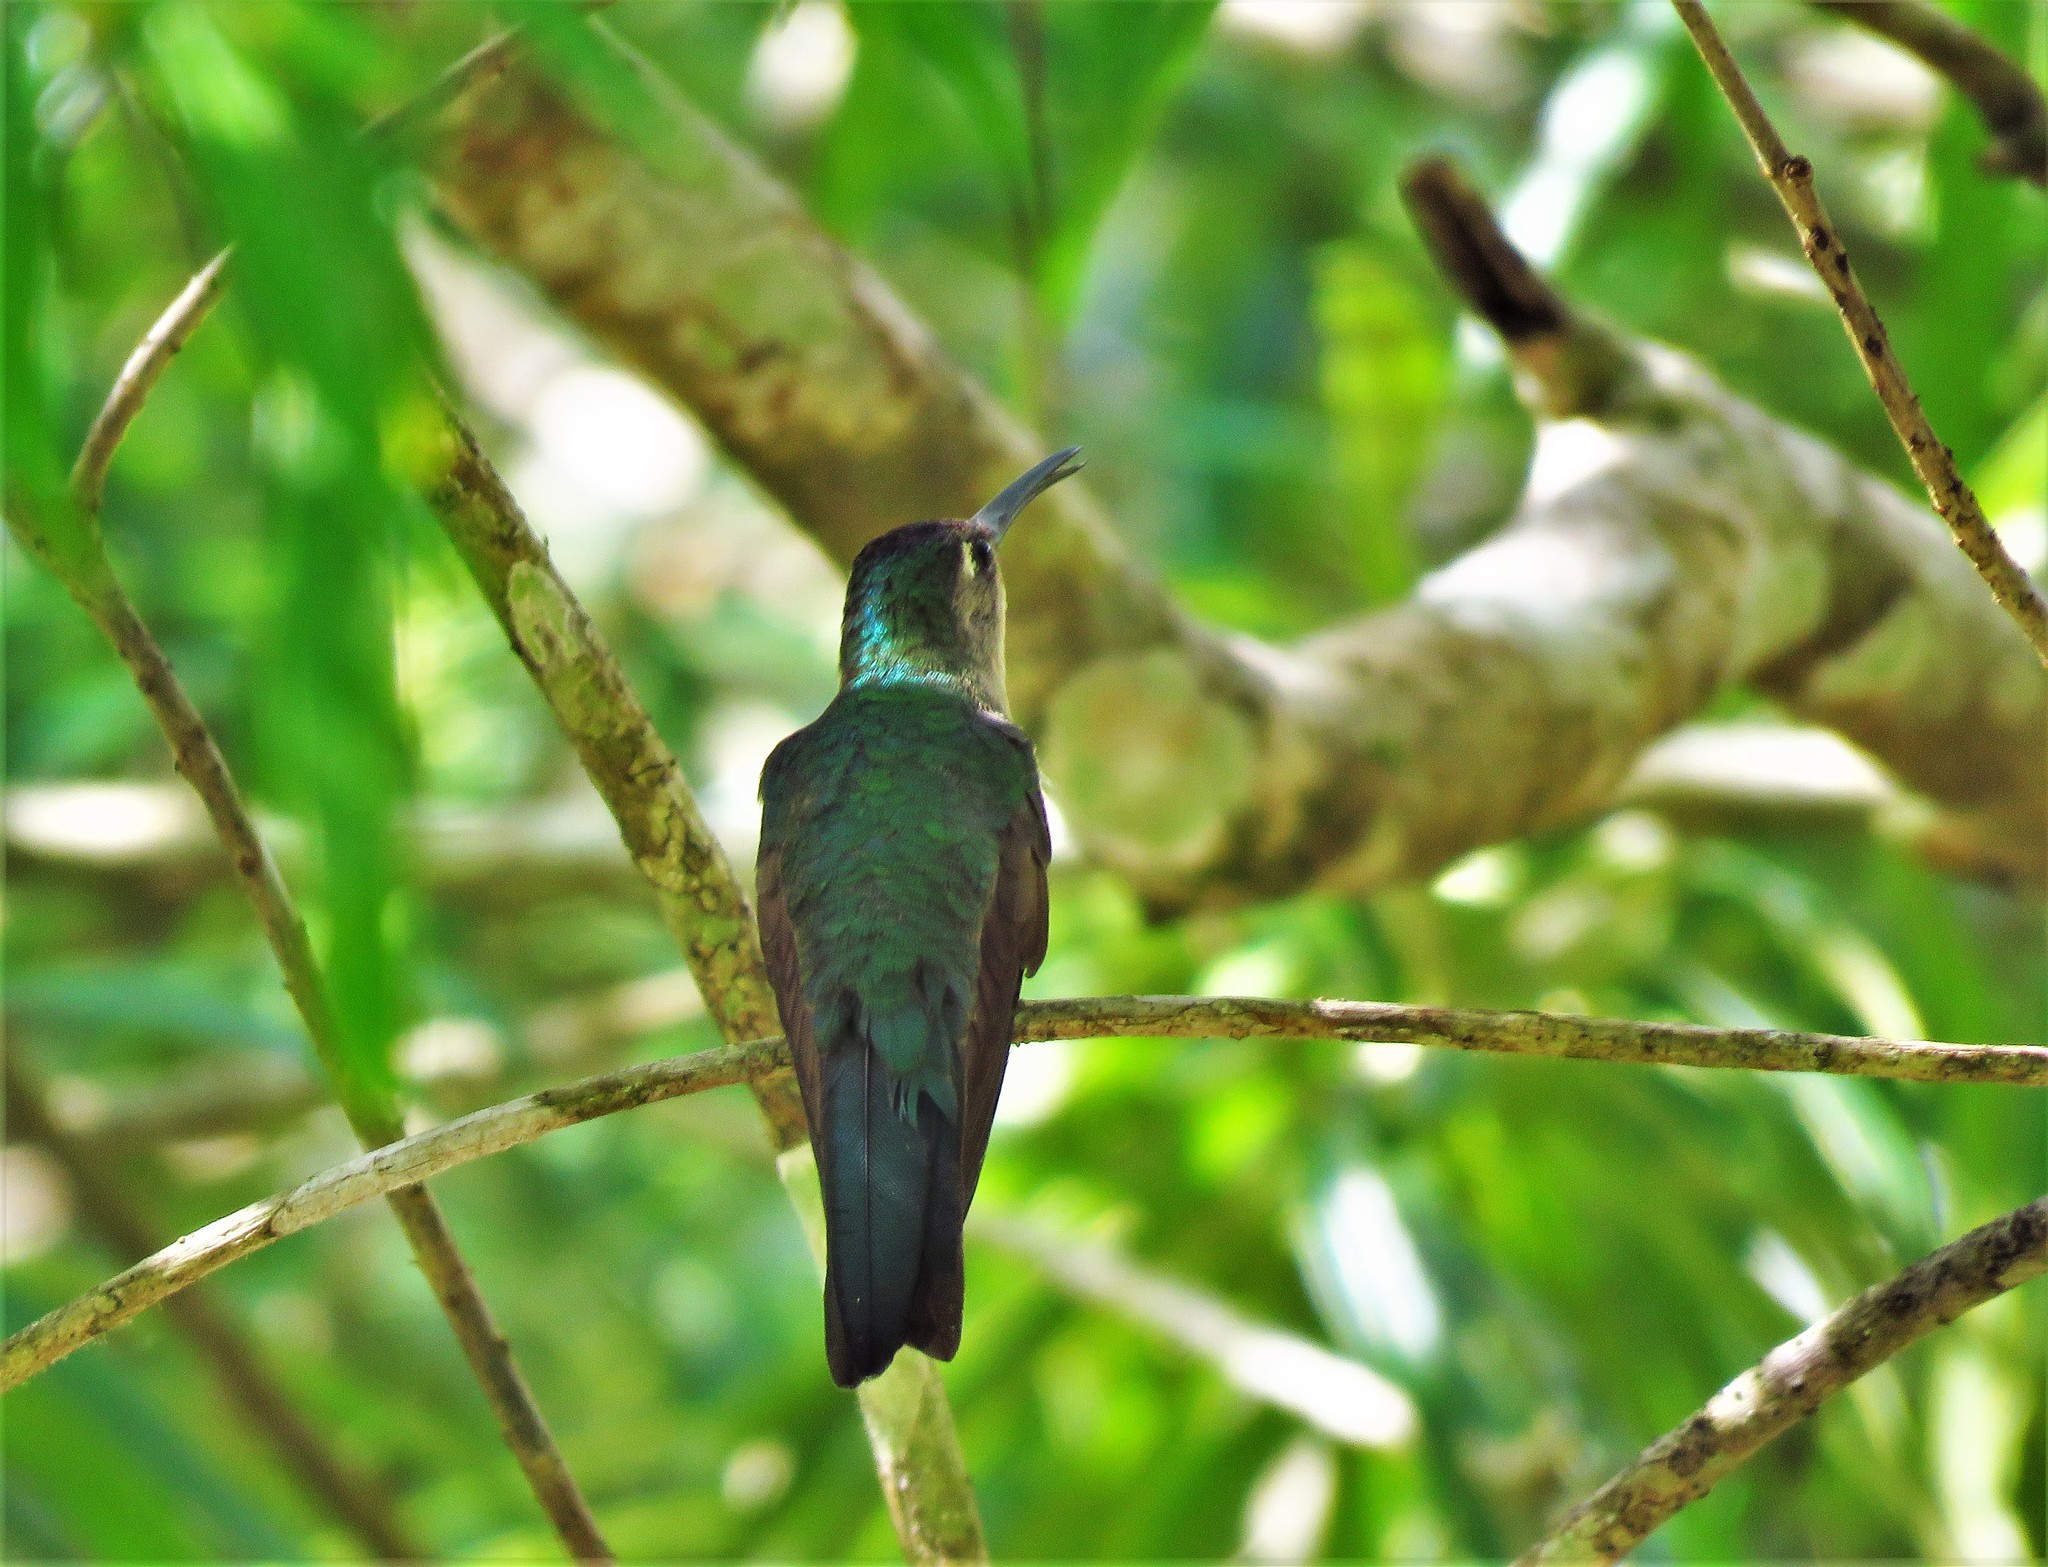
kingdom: Animalia
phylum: Chordata
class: Aves
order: Apodiformes
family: Trochilidae
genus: Heliothryx
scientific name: Heliothryx barroti
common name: Purple-crowned fairy
